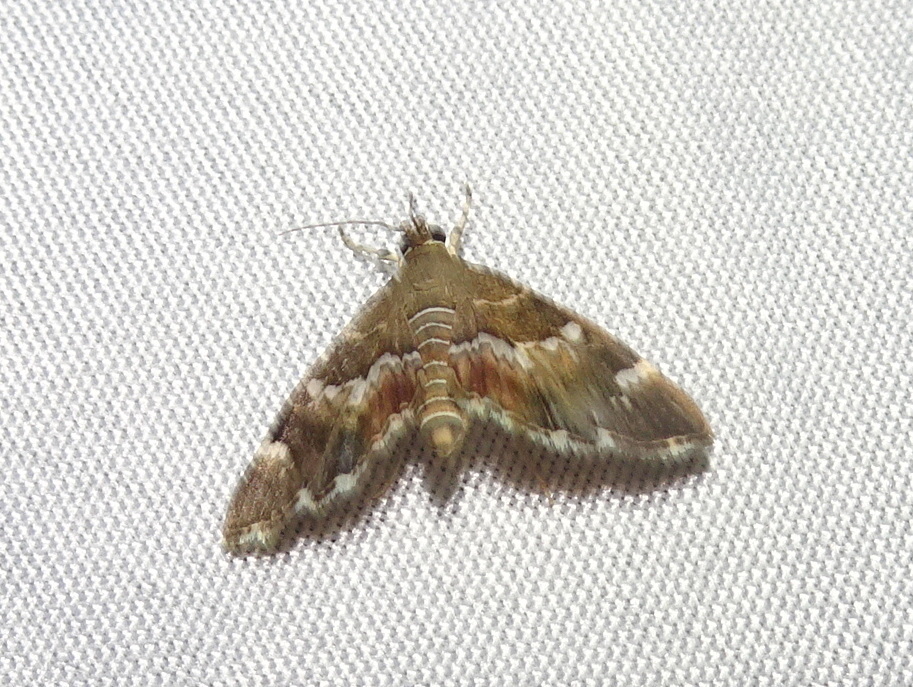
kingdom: Animalia
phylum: Arthropoda
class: Insecta
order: Lepidoptera
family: Crambidae
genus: Hymenia
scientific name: Hymenia perspectalis
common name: Spotted beet webworm
